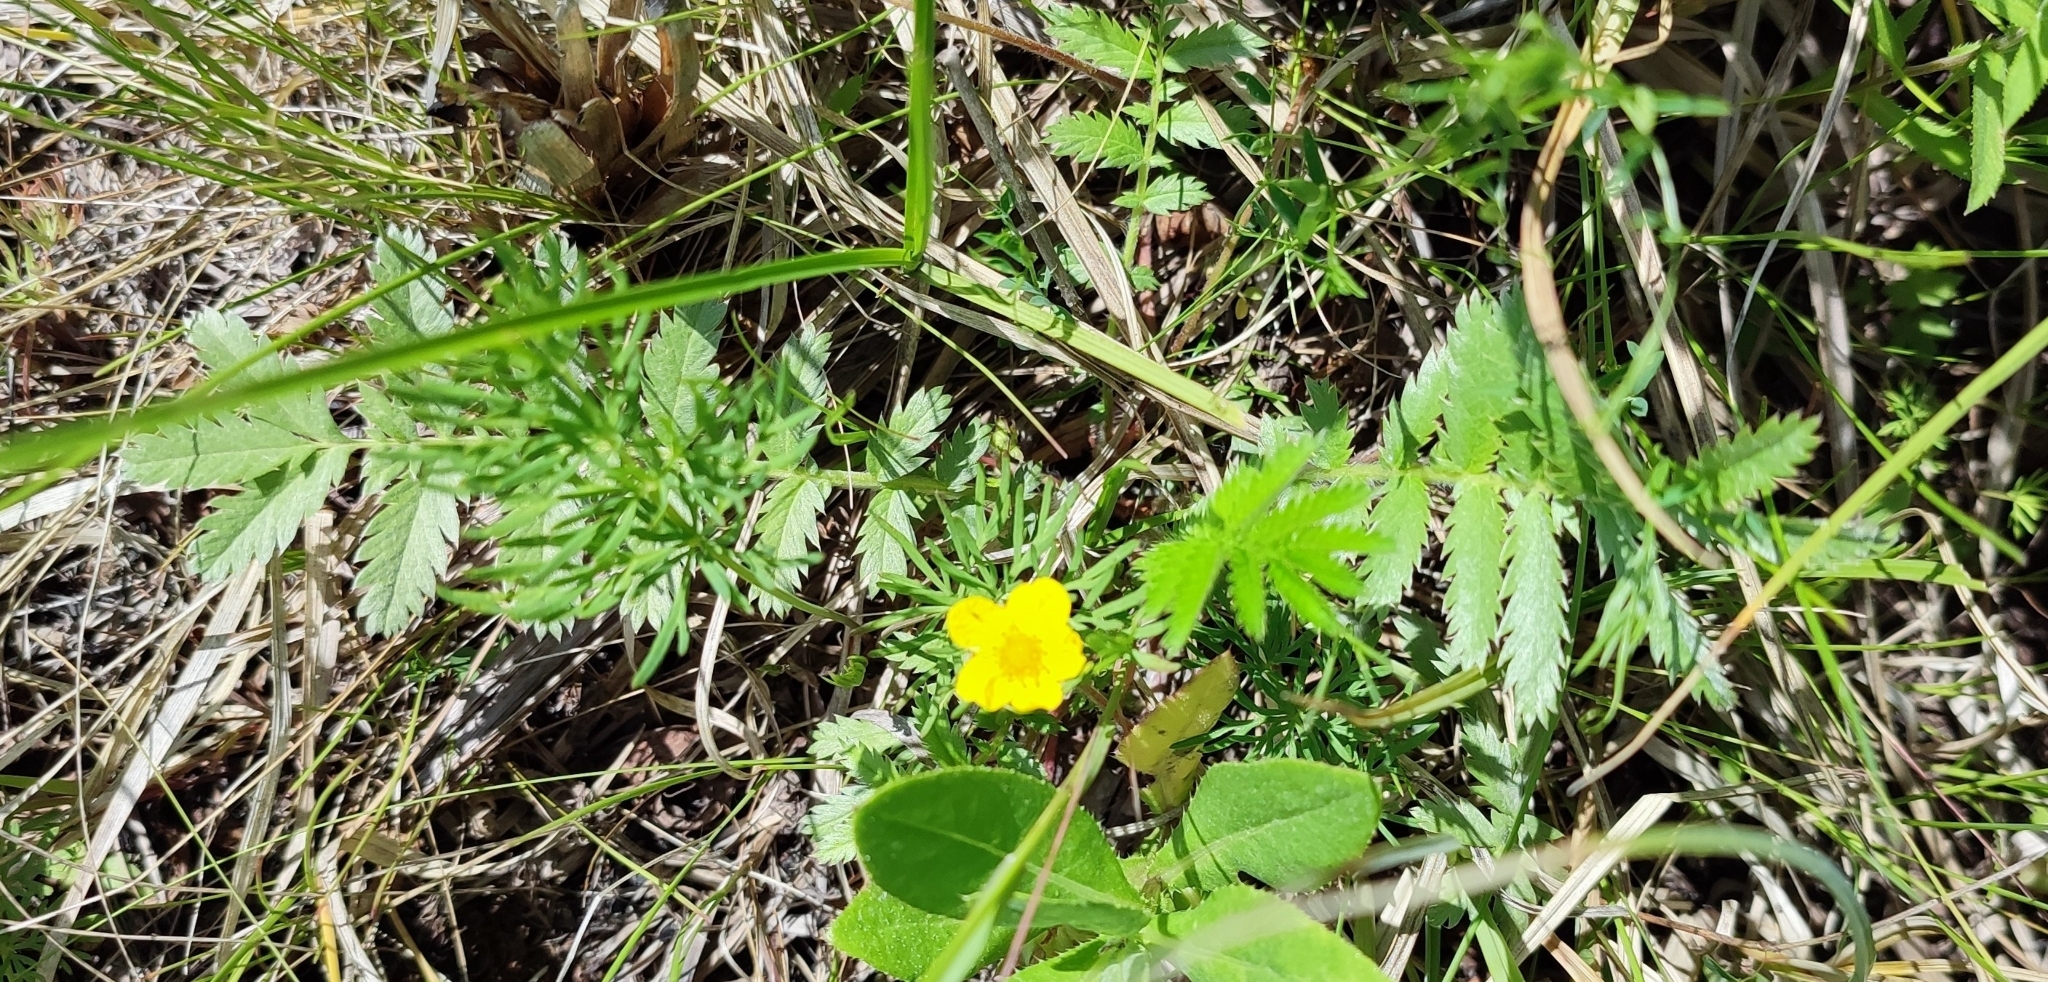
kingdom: Plantae
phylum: Tracheophyta
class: Magnoliopsida
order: Rosales
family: Rosaceae
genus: Argentina
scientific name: Argentina anserina
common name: Common silverweed
